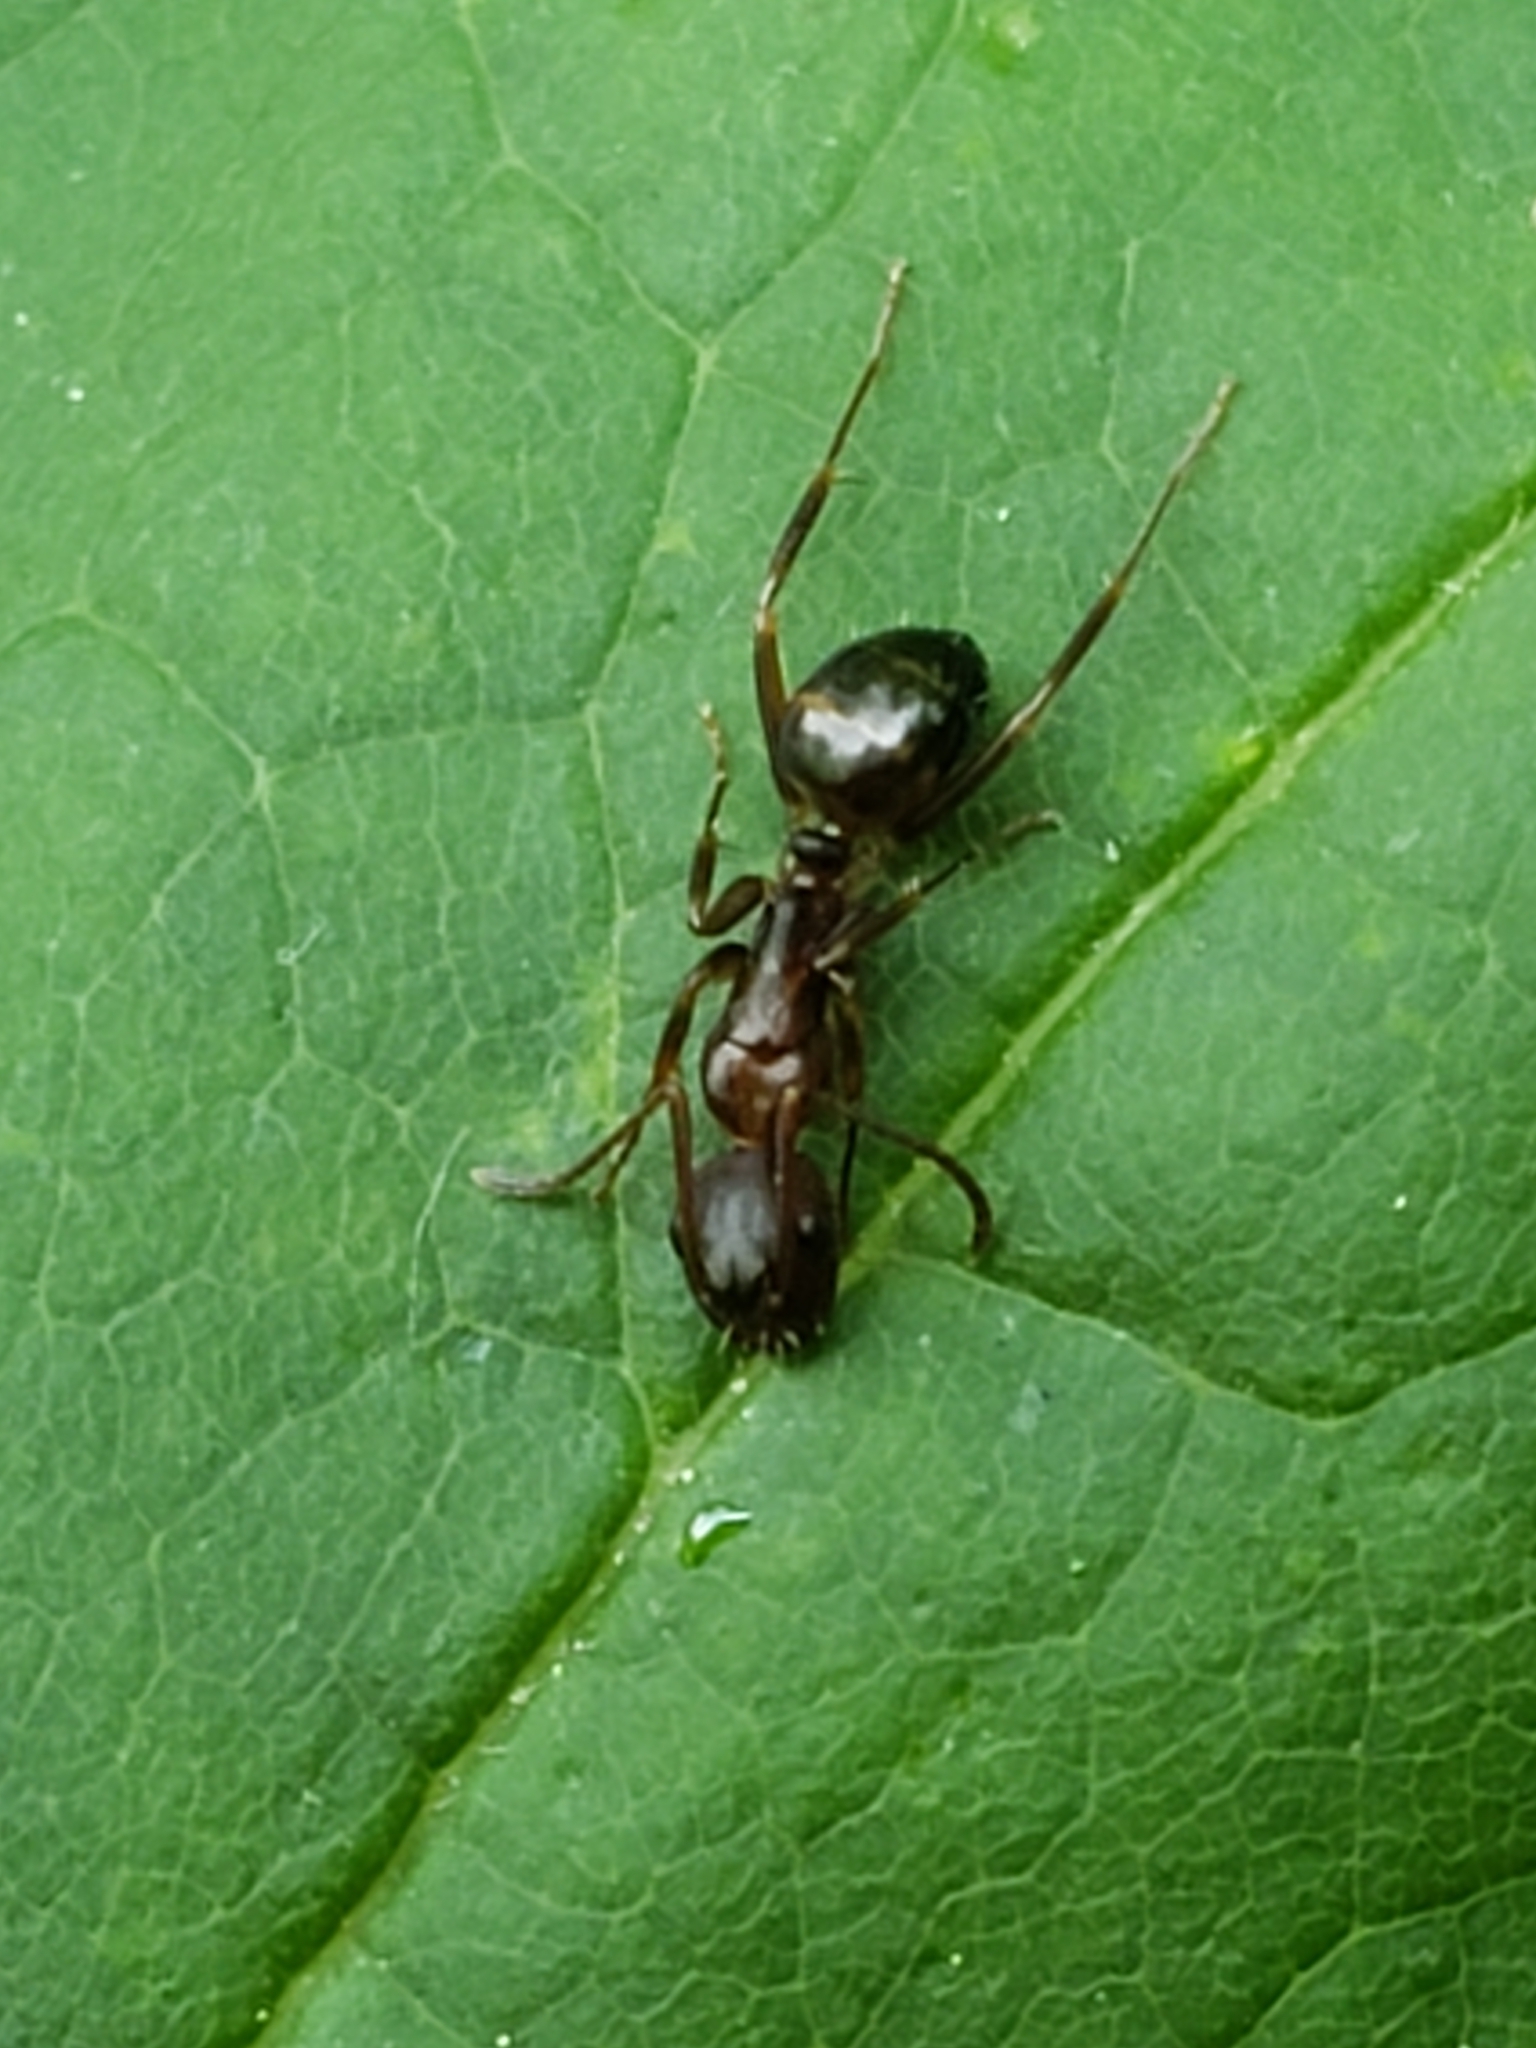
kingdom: Animalia
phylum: Arthropoda
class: Insecta
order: Hymenoptera
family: Formicidae
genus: Camponotus
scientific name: Camponotus subbarbatus
